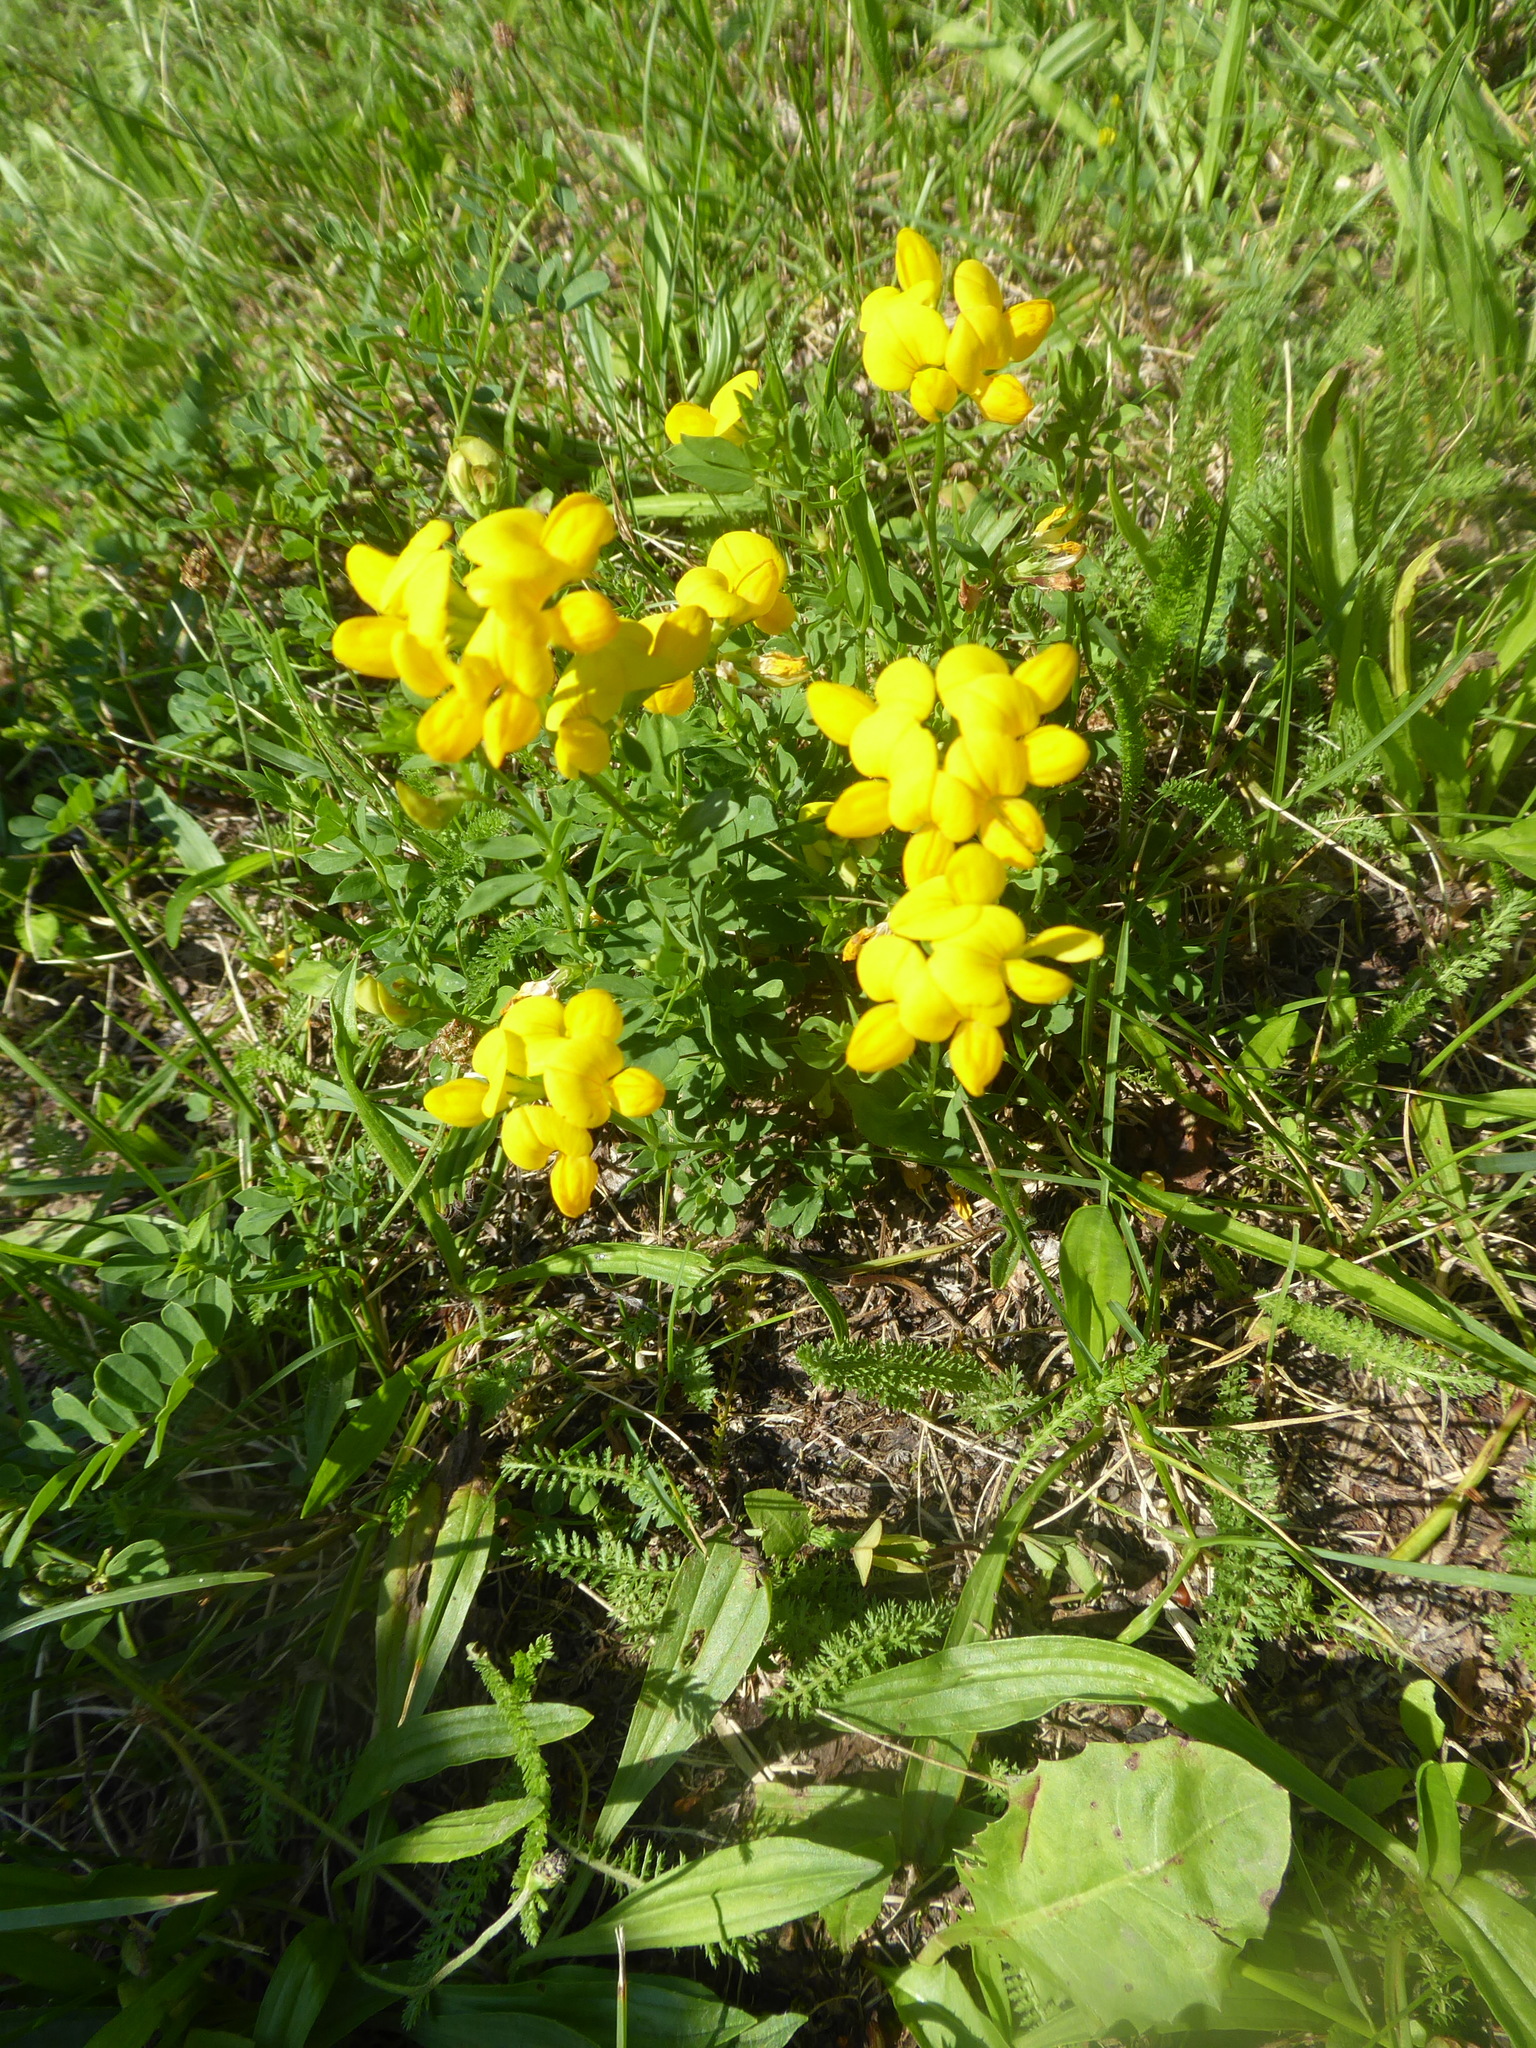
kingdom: Plantae
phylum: Tracheophyta
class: Magnoliopsida
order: Fabales
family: Fabaceae
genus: Lotus
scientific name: Lotus corniculatus
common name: Common bird's-foot-trefoil
